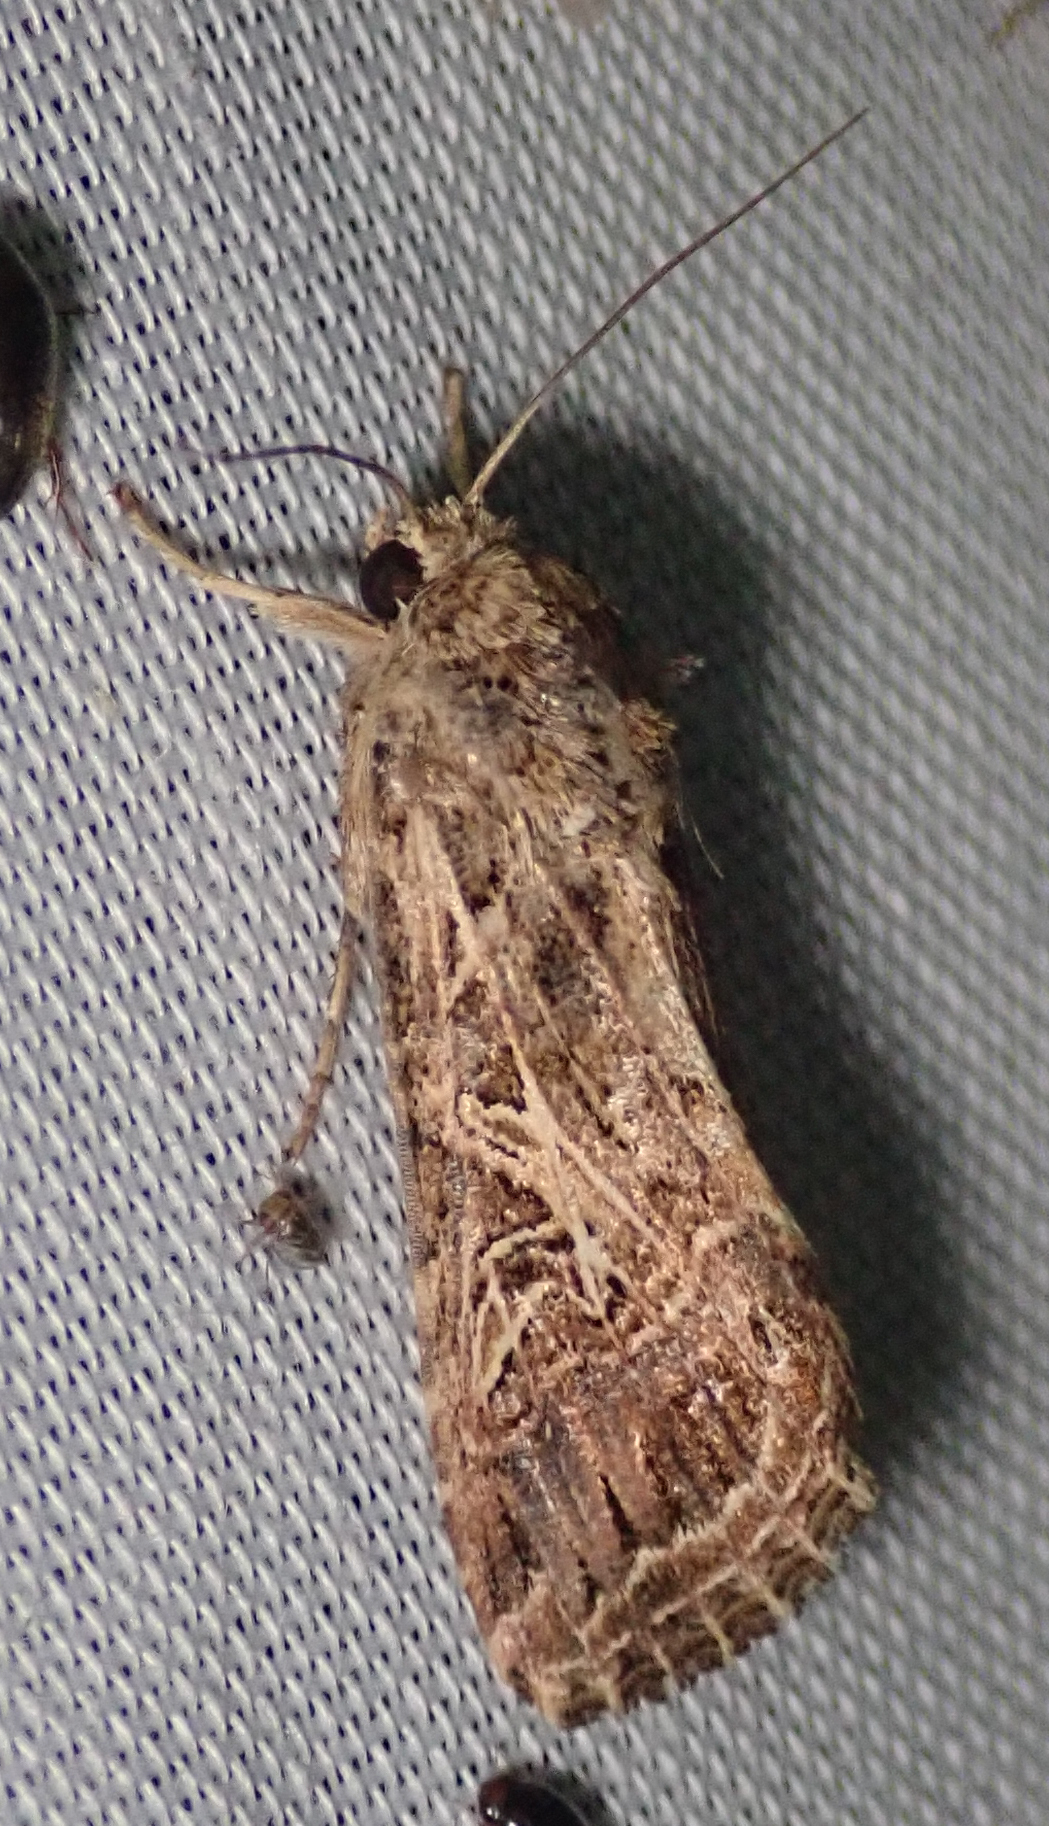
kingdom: Animalia
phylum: Arthropoda
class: Insecta
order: Lepidoptera
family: Noctuidae
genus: Spodoptera
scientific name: Spodoptera littoralis
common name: Egyptian cotton leafworm
